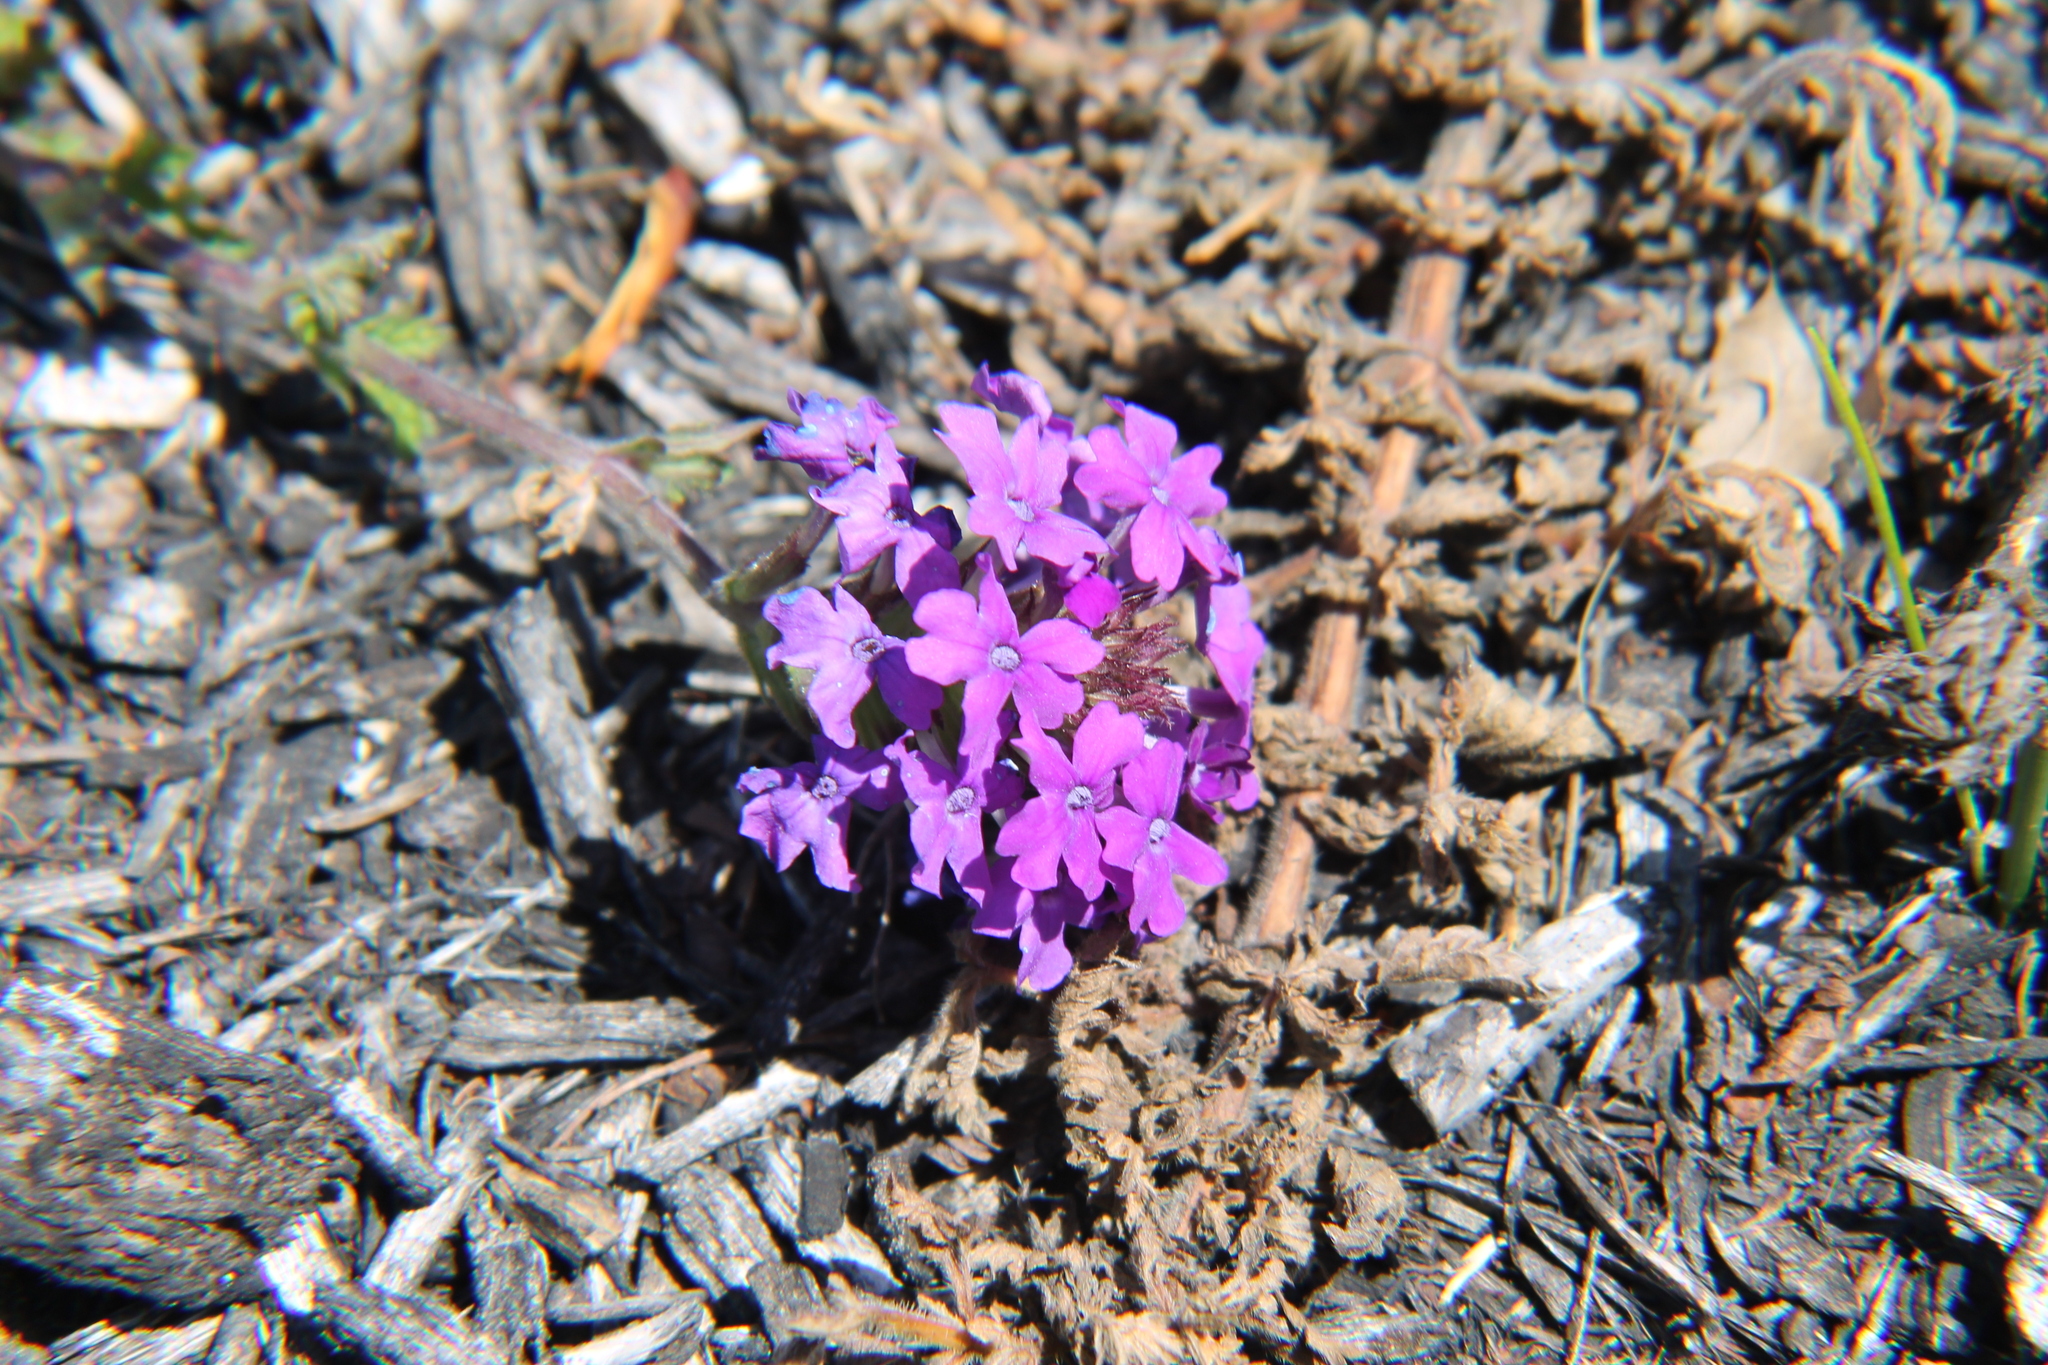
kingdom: Plantae
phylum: Tracheophyta
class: Magnoliopsida
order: Lamiales
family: Verbenaceae
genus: Verbena
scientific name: Verbena canadensis
